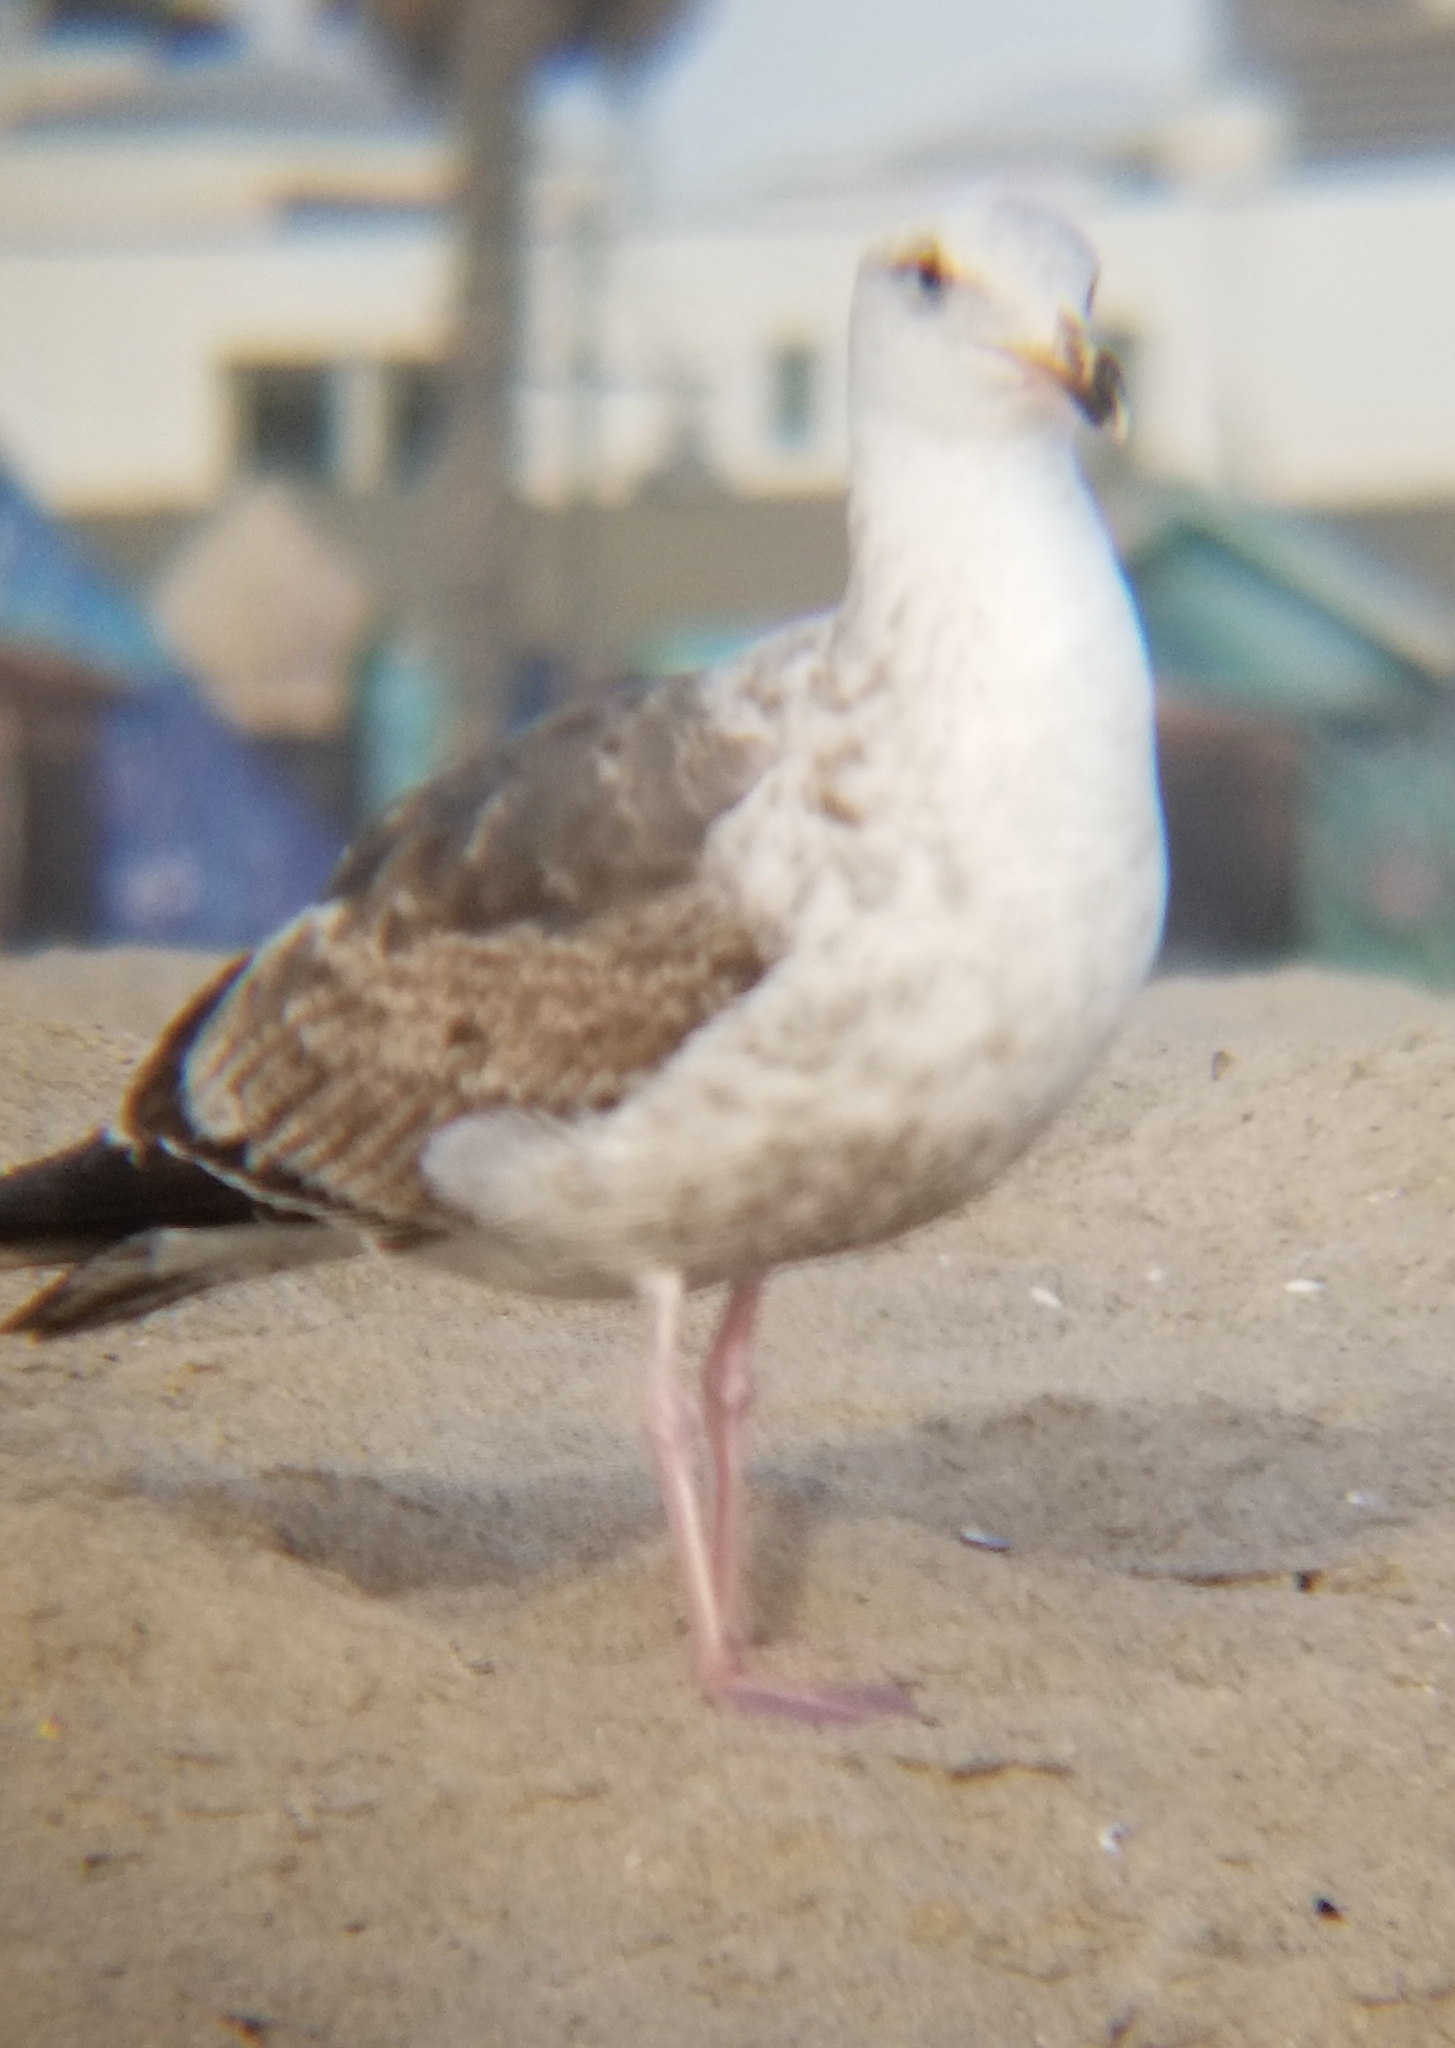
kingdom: Animalia
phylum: Chordata
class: Aves
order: Charadriiformes
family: Laridae
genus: Larus
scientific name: Larus occidentalis
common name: Western gull
